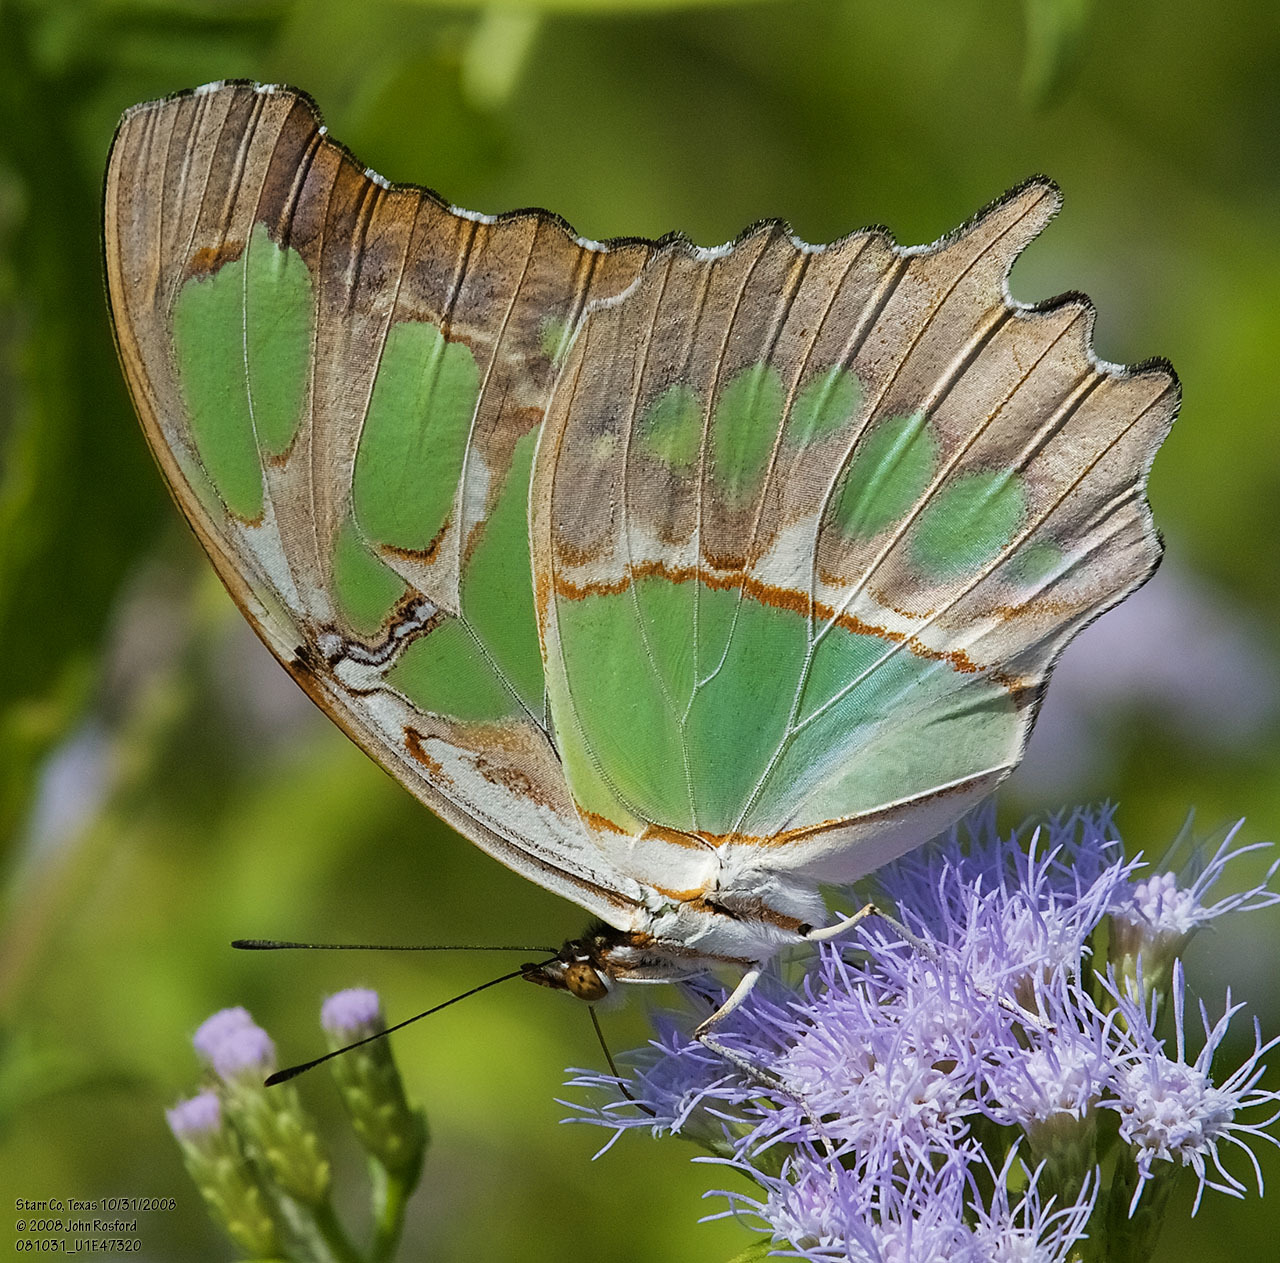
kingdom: Animalia
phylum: Arthropoda
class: Insecta
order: Lepidoptera
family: Nymphalidae
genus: Siproeta
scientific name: Siproeta stelenes
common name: Malachite
